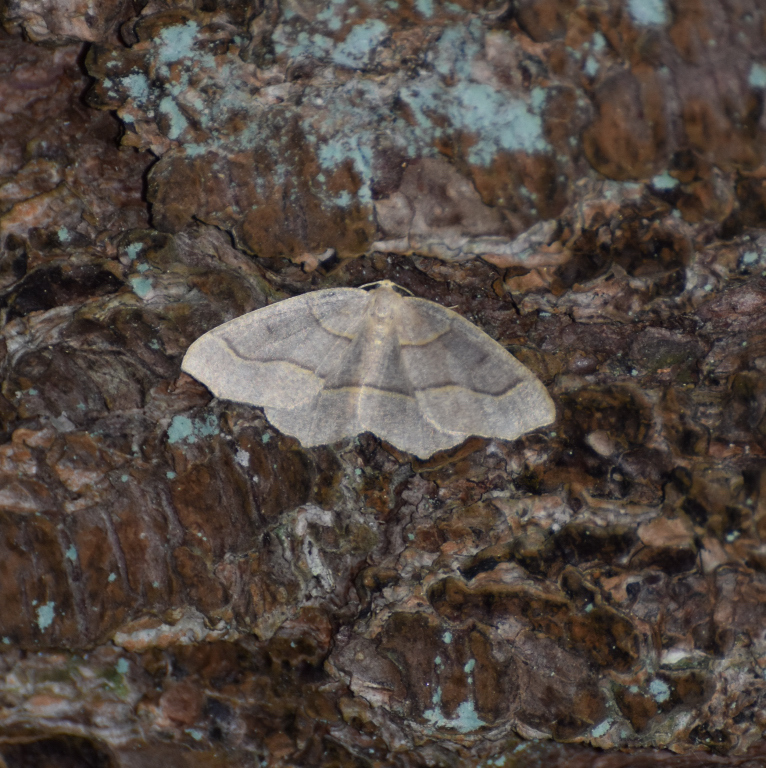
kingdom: Animalia
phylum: Arthropoda
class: Insecta
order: Lepidoptera
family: Geometridae
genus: Lambdina
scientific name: Lambdina fiscellaria
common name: Hemlock looper
